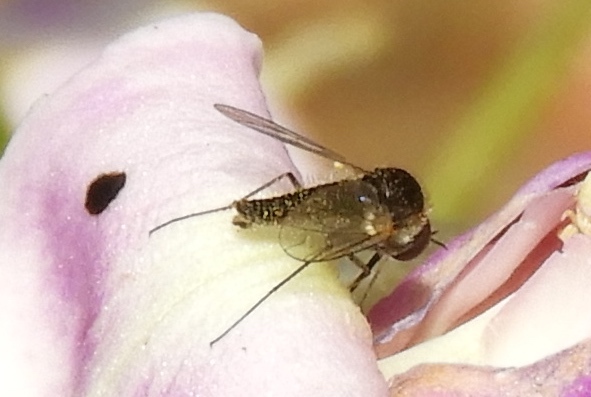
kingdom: Animalia
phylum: Arthropoda
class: Insecta
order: Diptera
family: Bombyliidae
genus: Geron
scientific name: Geron
